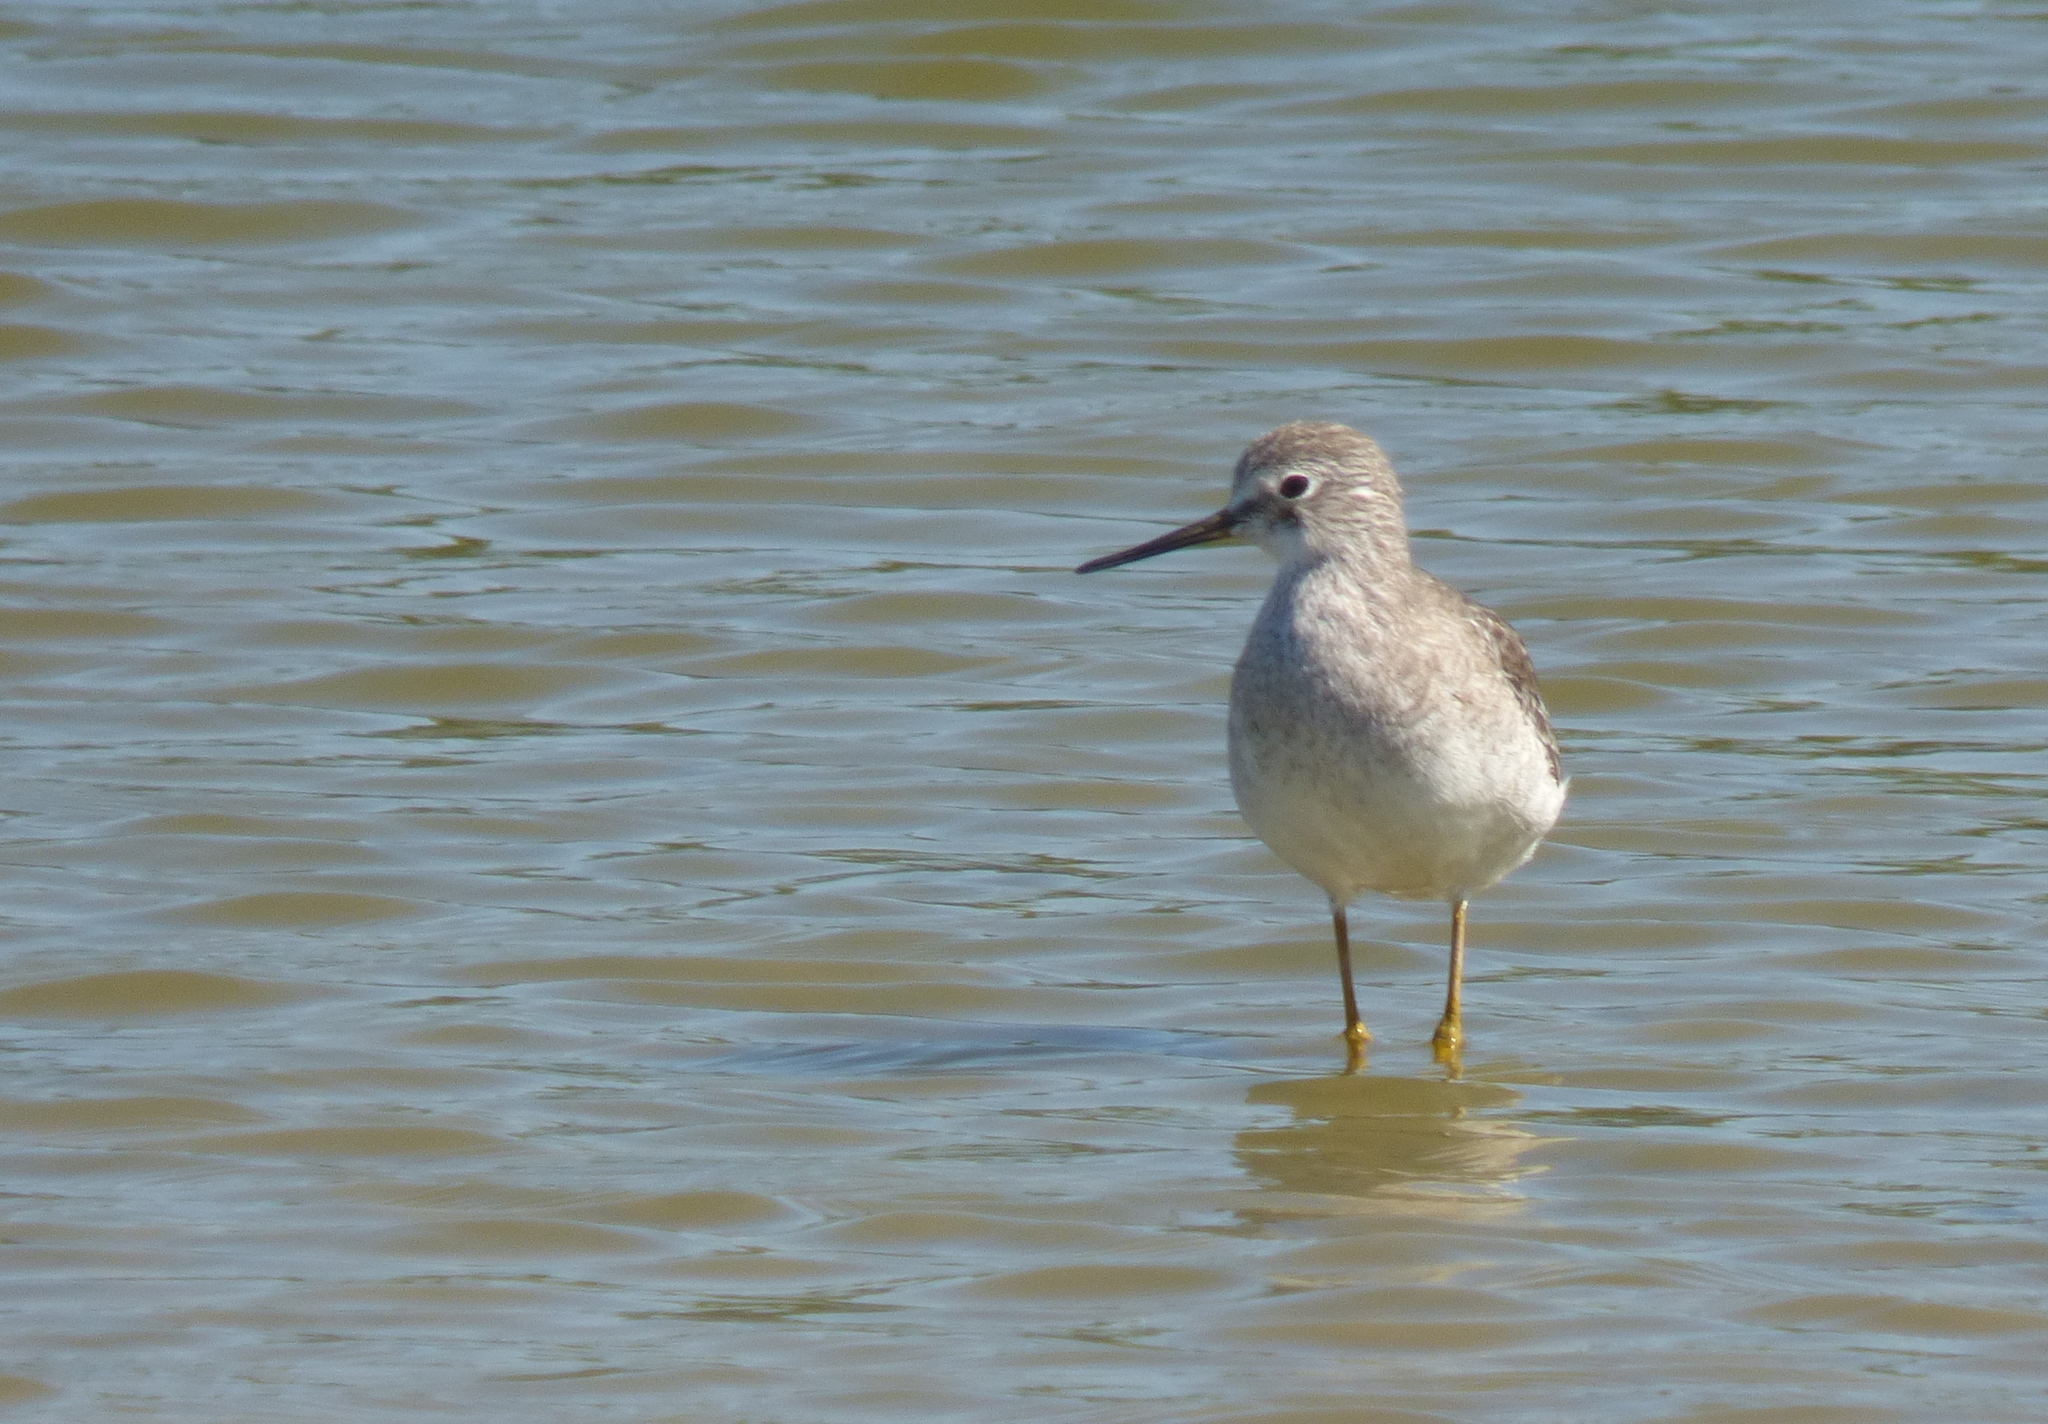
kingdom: Animalia
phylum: Chordata
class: Aves
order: Charadriiformes
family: Scolopacidae
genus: Tringa
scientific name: Tringa flavipes
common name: Lesser yellowlegs
